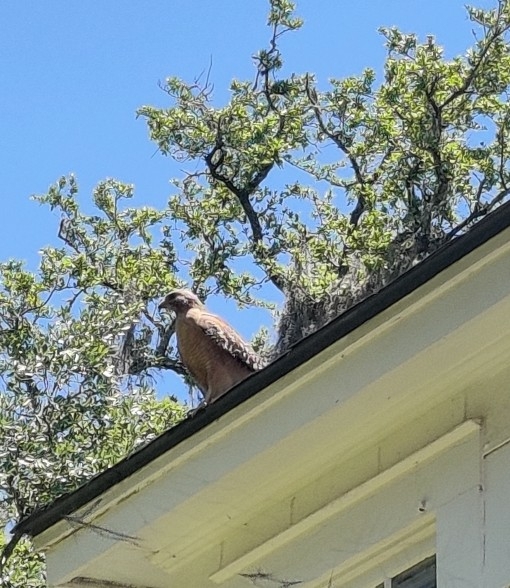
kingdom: Animalia
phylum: Chordata
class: Aves
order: Accipitriformes
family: Accipitridae
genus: Buteo
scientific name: Buteo lineatus
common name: Red-shouldered hawk
